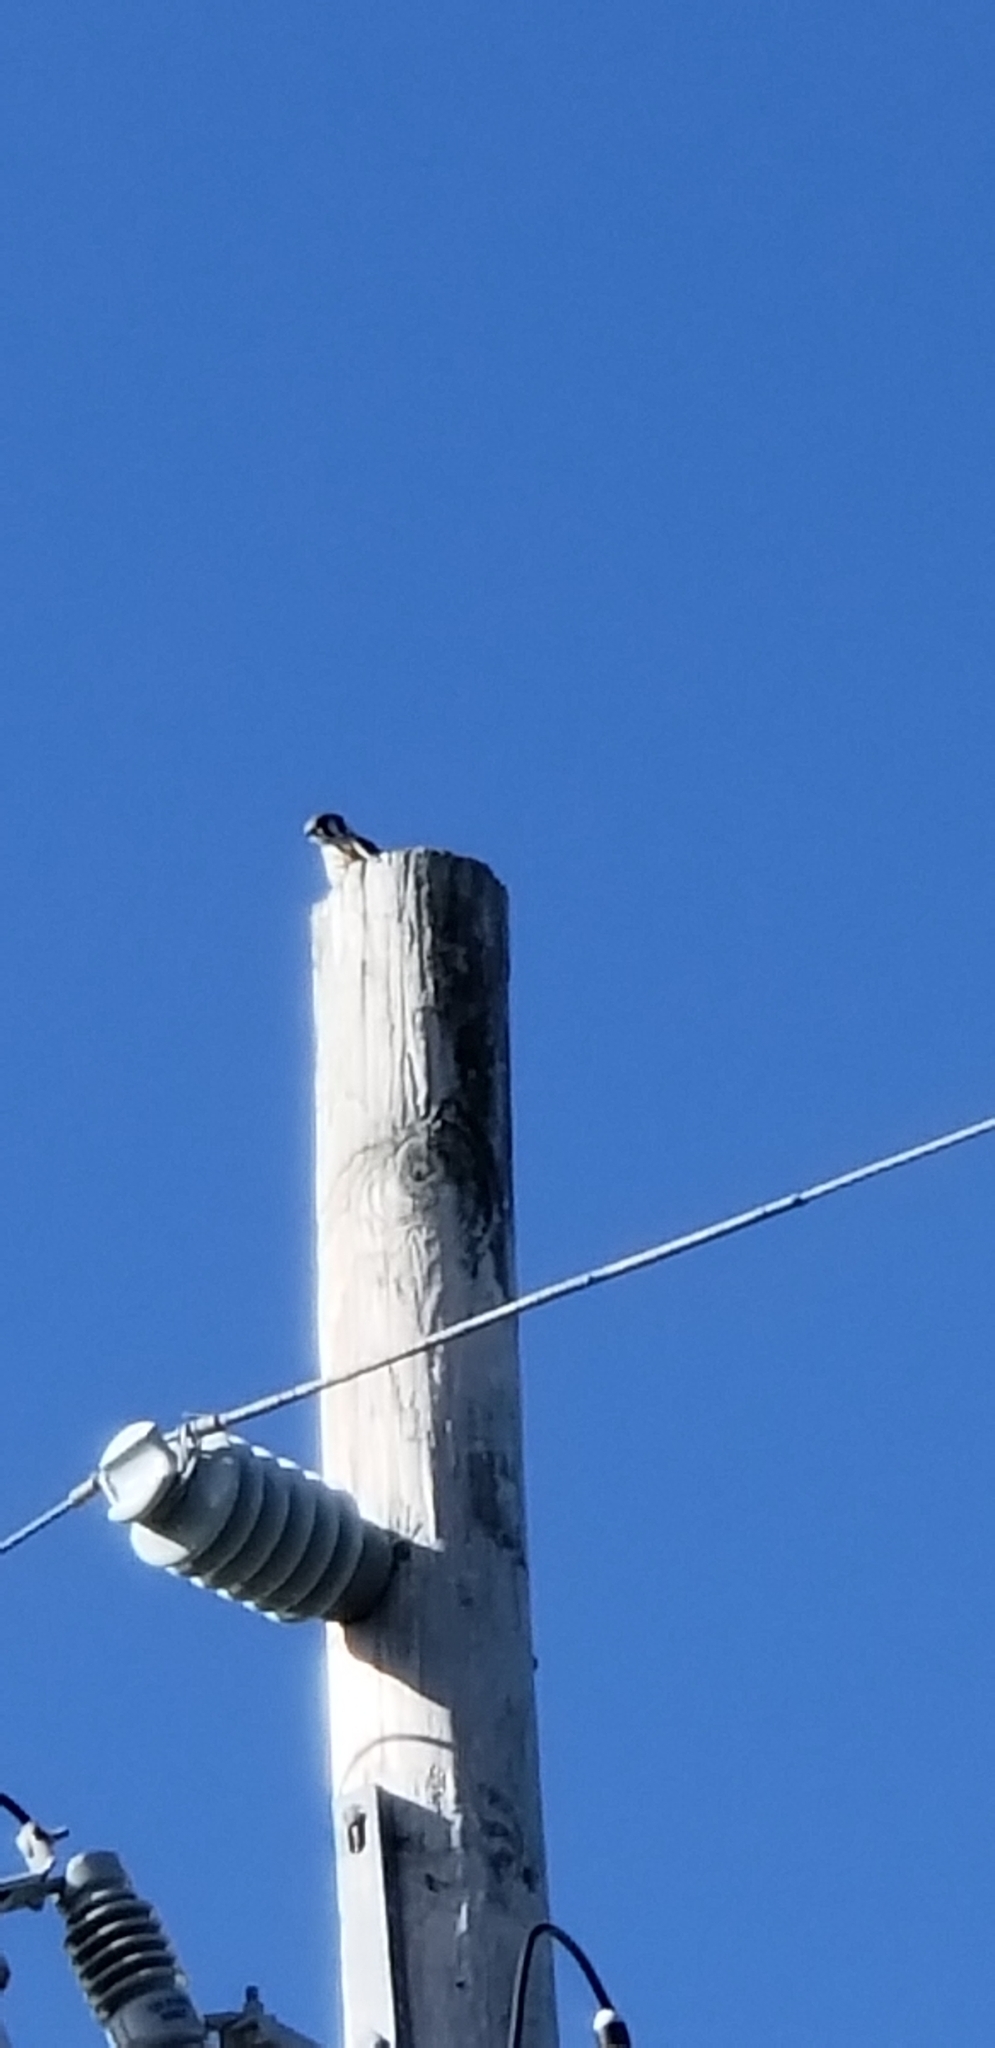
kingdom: Animalia
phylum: Chordata
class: Aves
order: Falconiformes
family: Falconidae
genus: Falco
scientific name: Falco sparverius
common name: American kestrel
